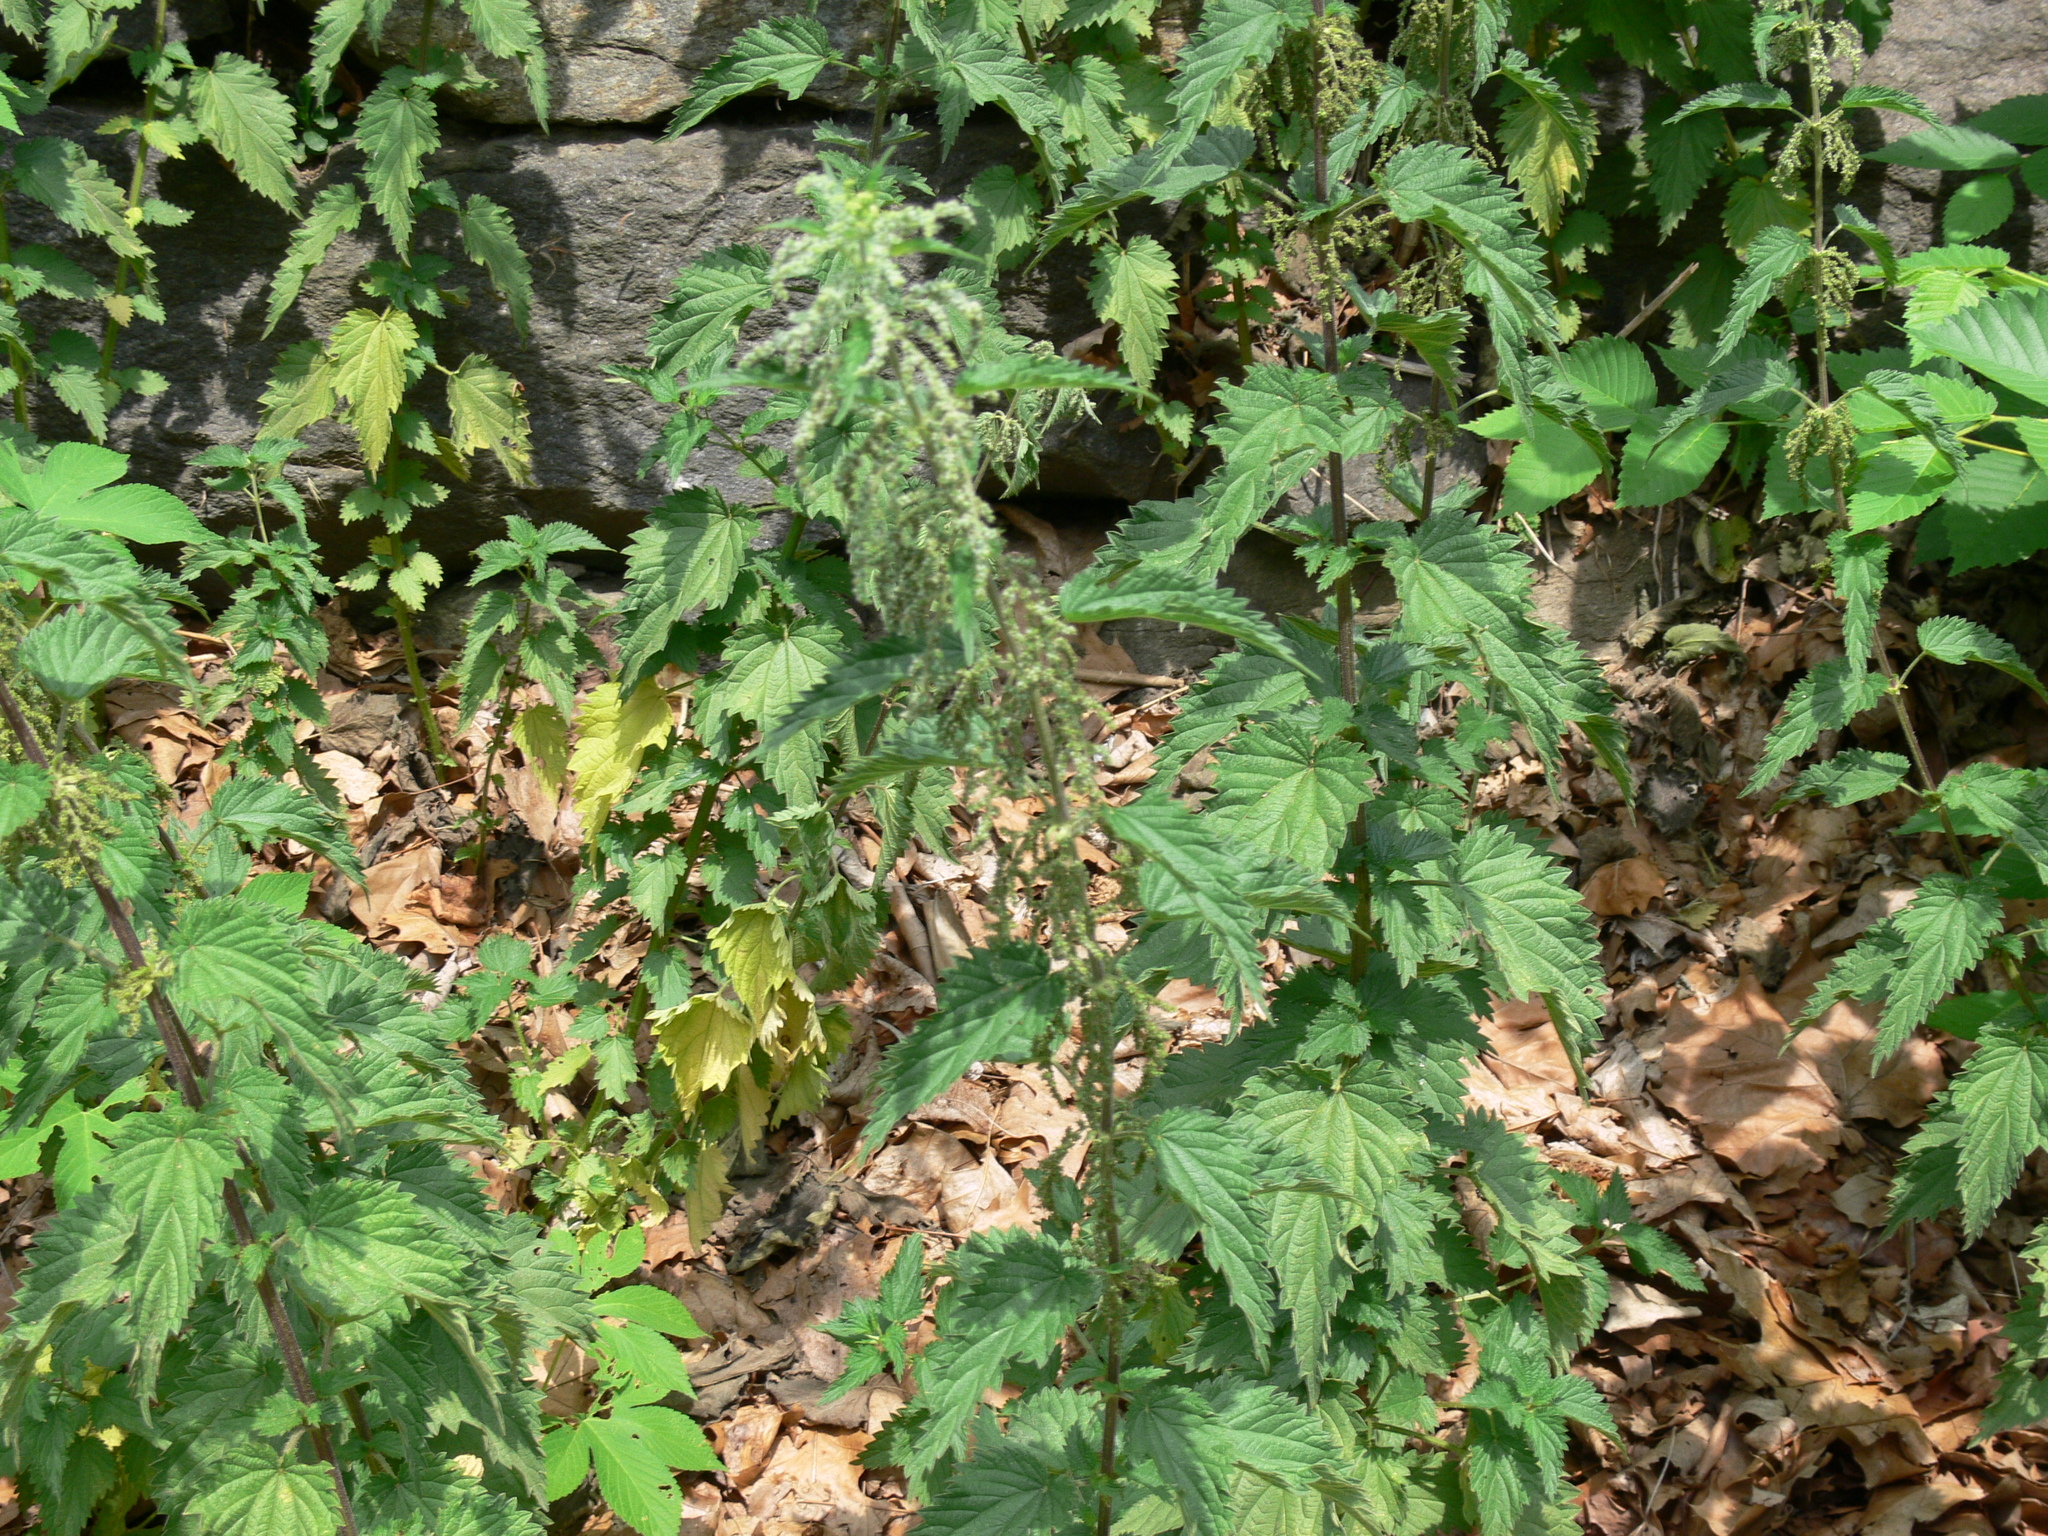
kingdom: Plantae
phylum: Tracheophyta
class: Magnoliopsida
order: Rosales
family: Urticaceae
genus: Urtica
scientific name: Urtica dioica
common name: Common nettle
